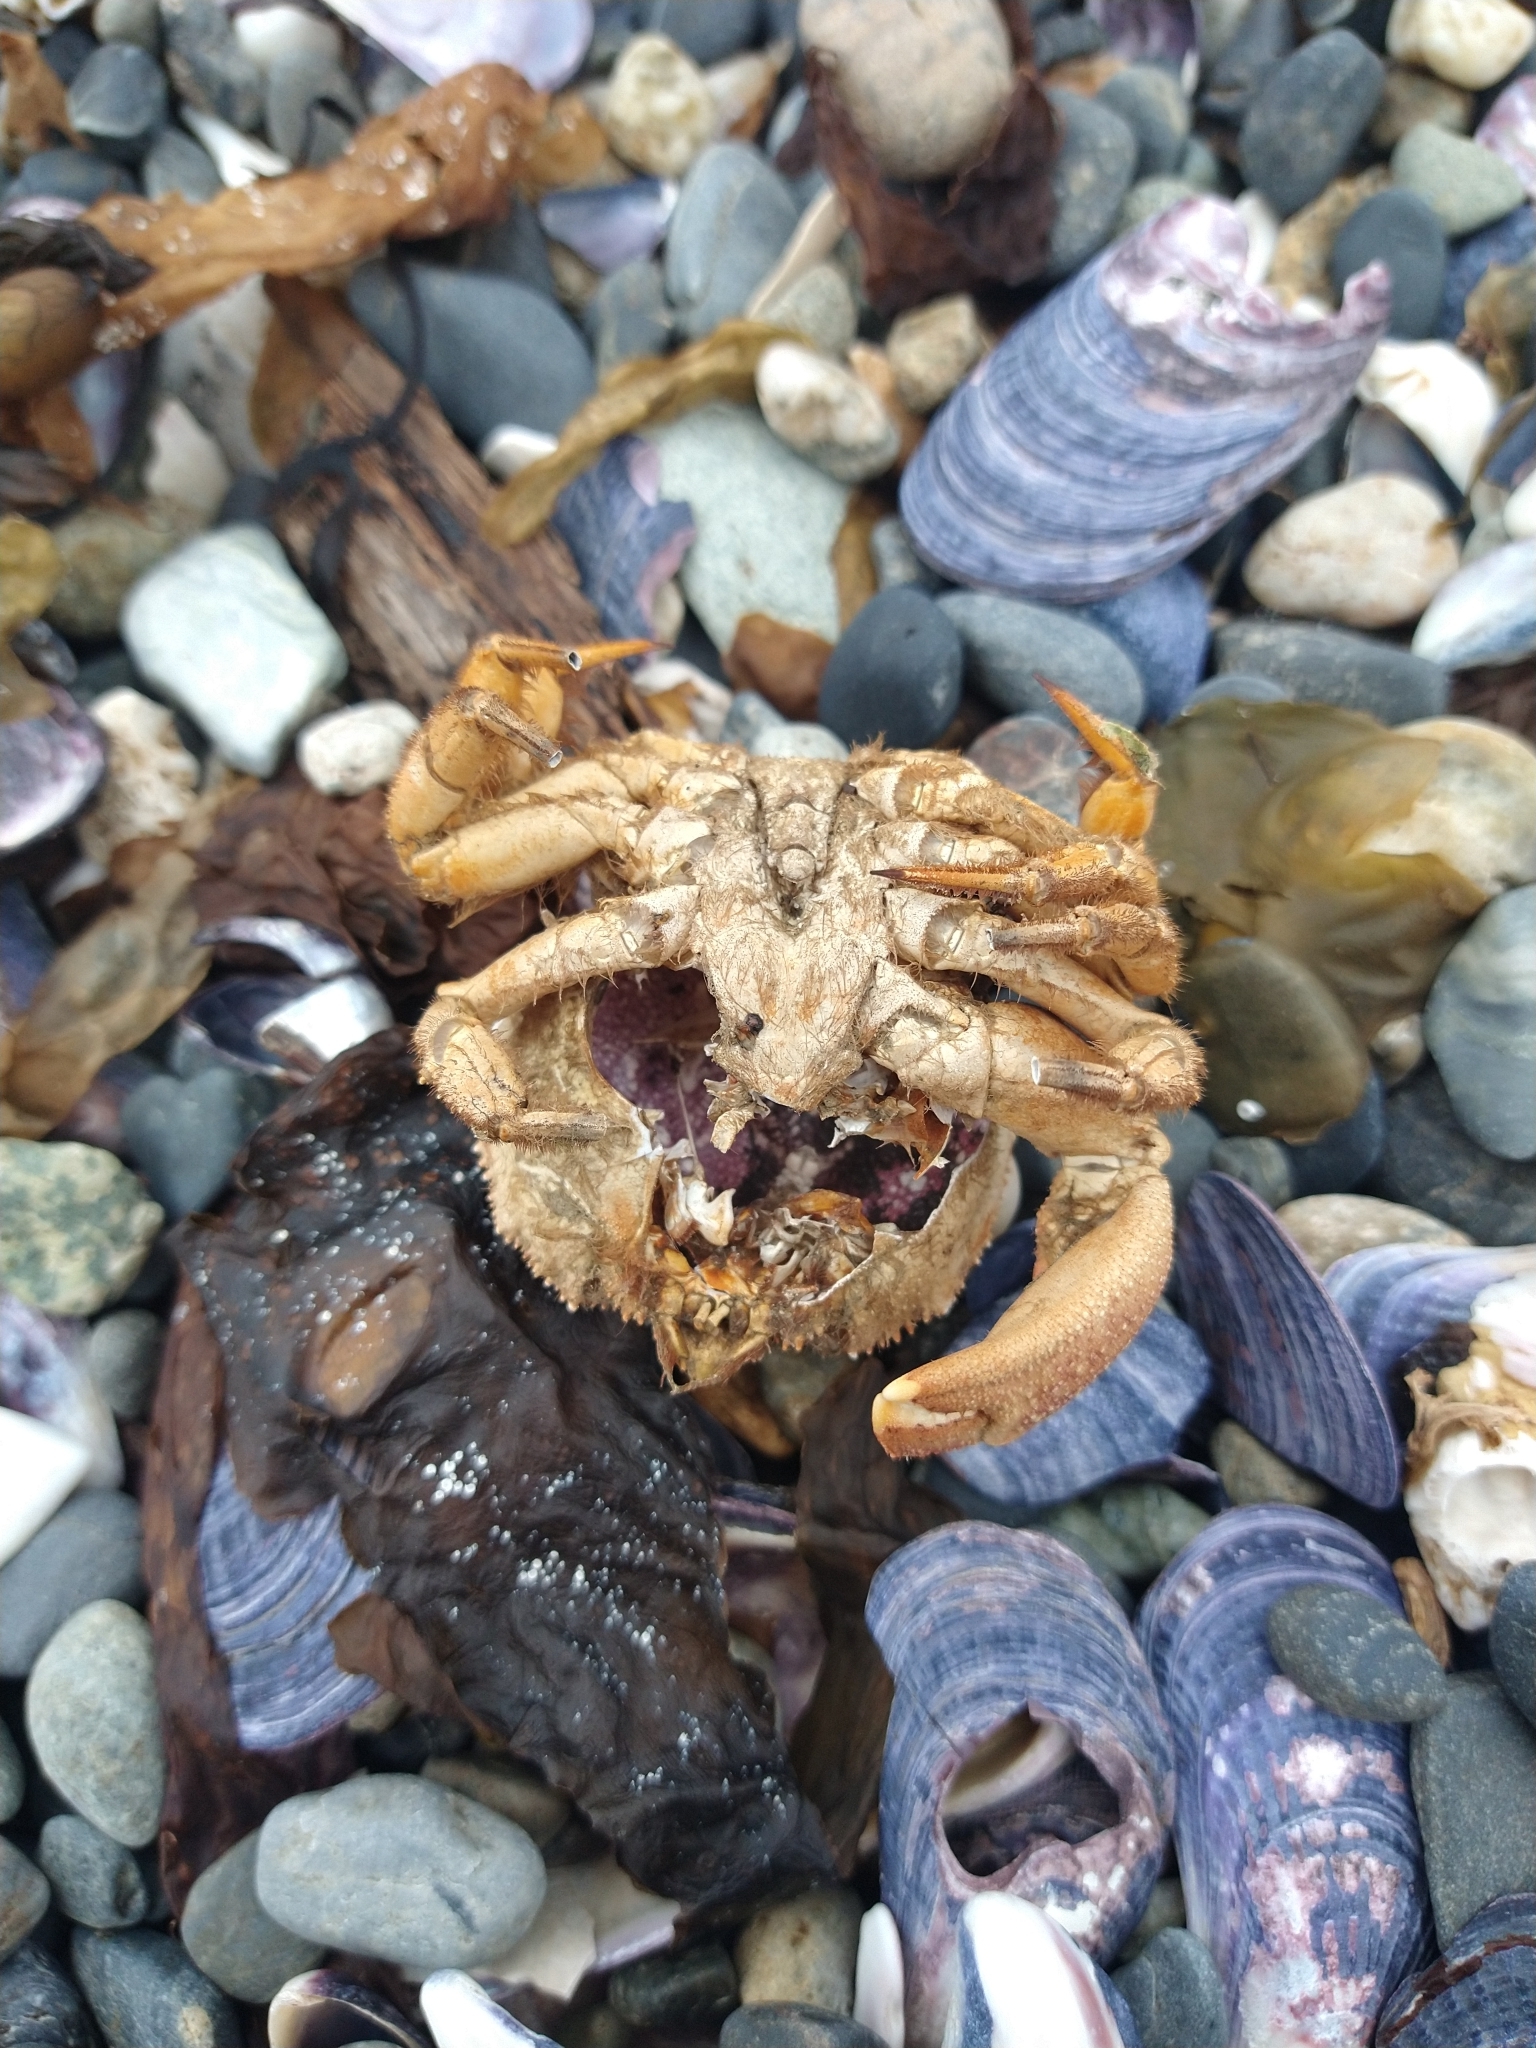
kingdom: Animalia
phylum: Arthropoda
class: Malacostraca
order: Decapoda
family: Trichopeltariidae
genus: Peltarion
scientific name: Peltarion spinulosum
